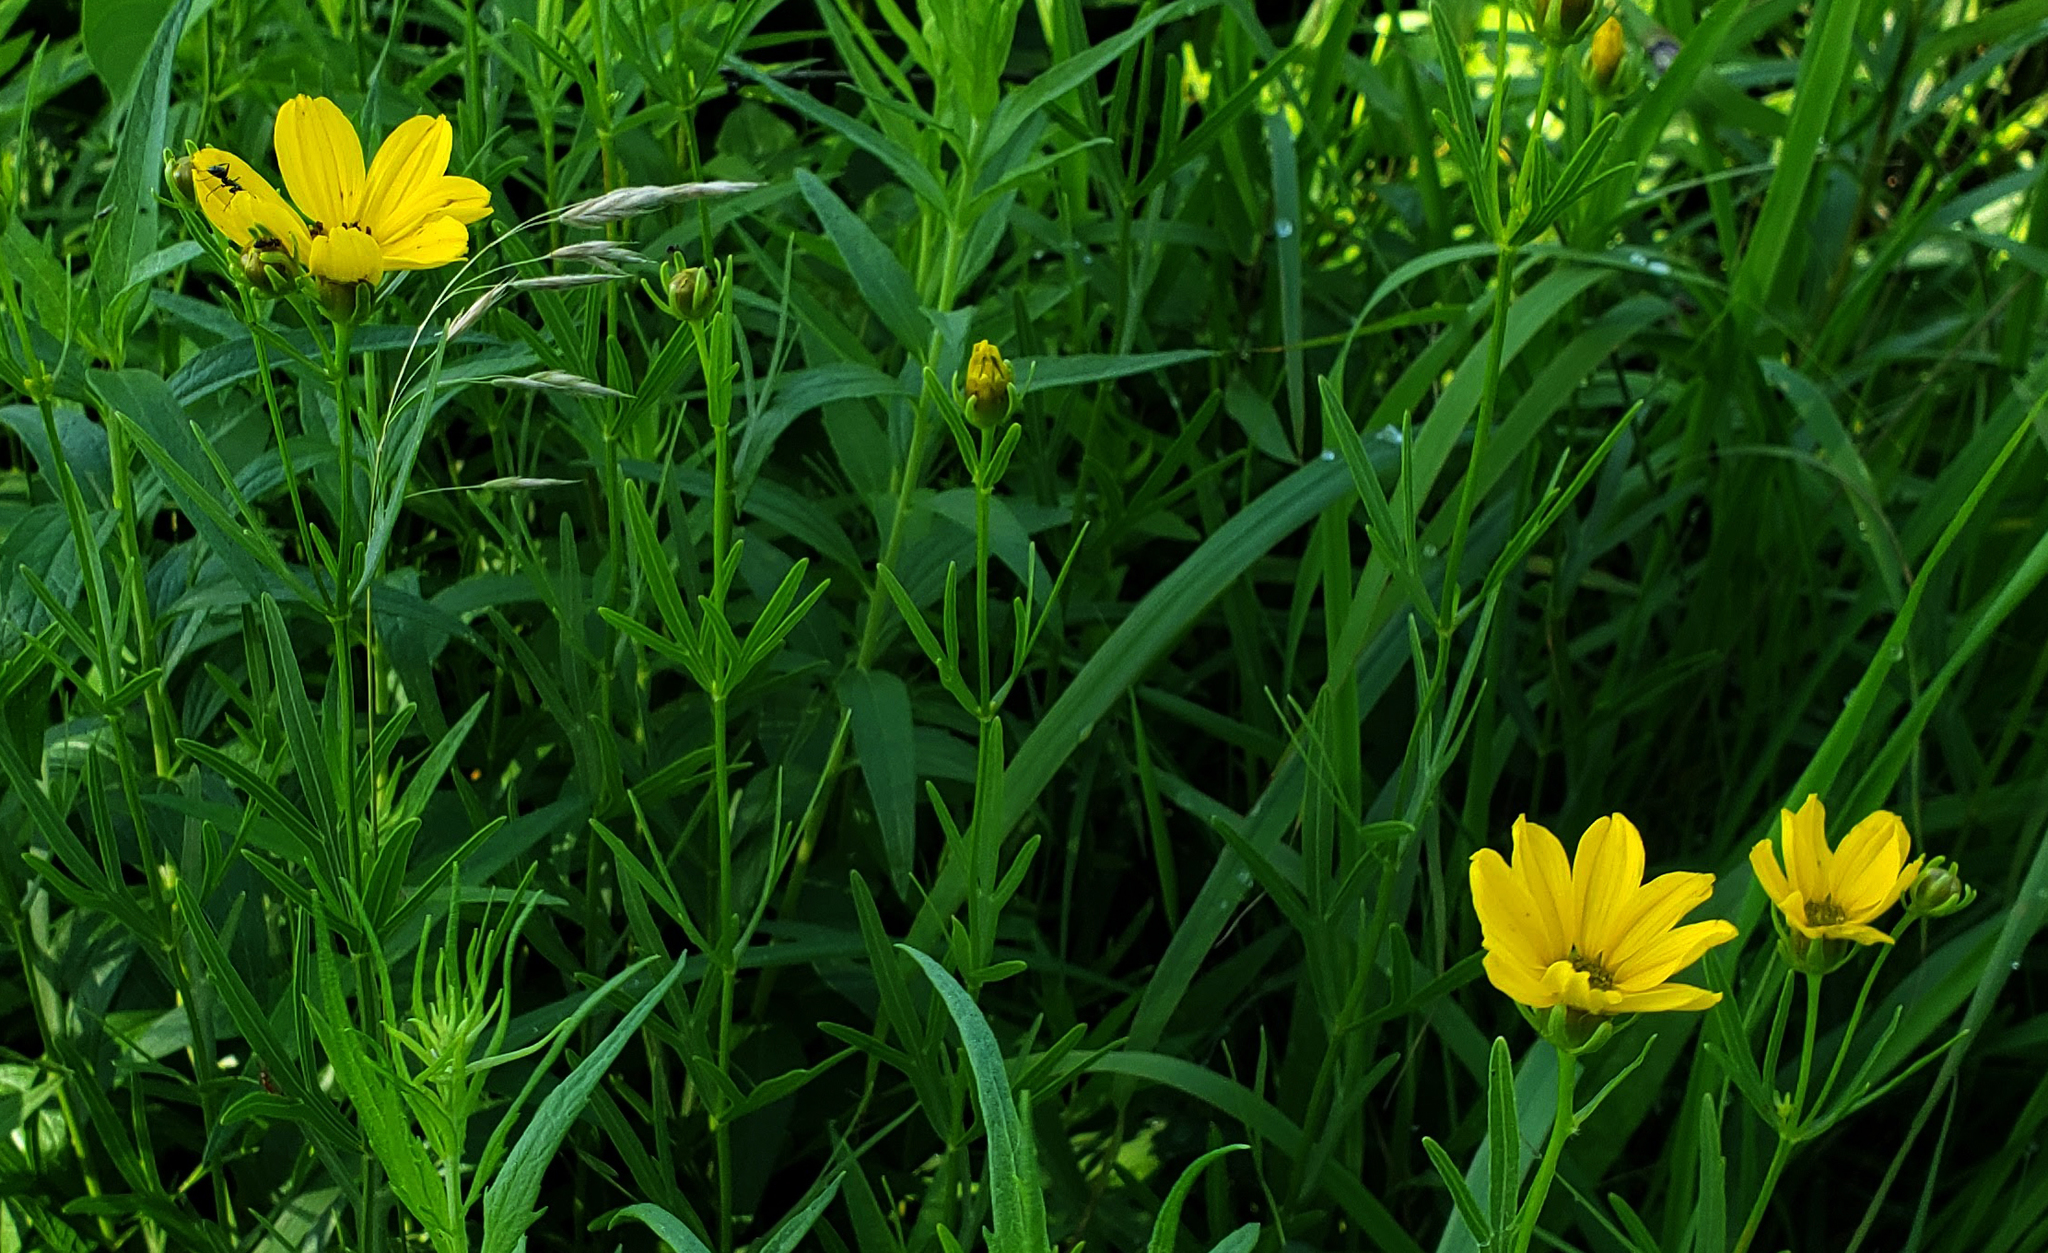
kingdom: Plantae
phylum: Tracheophyta
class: Magnoliopsida
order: Asterales
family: Asteraceae
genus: Coreopsis
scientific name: Coreopsis palmata
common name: Prairie coreopsis
